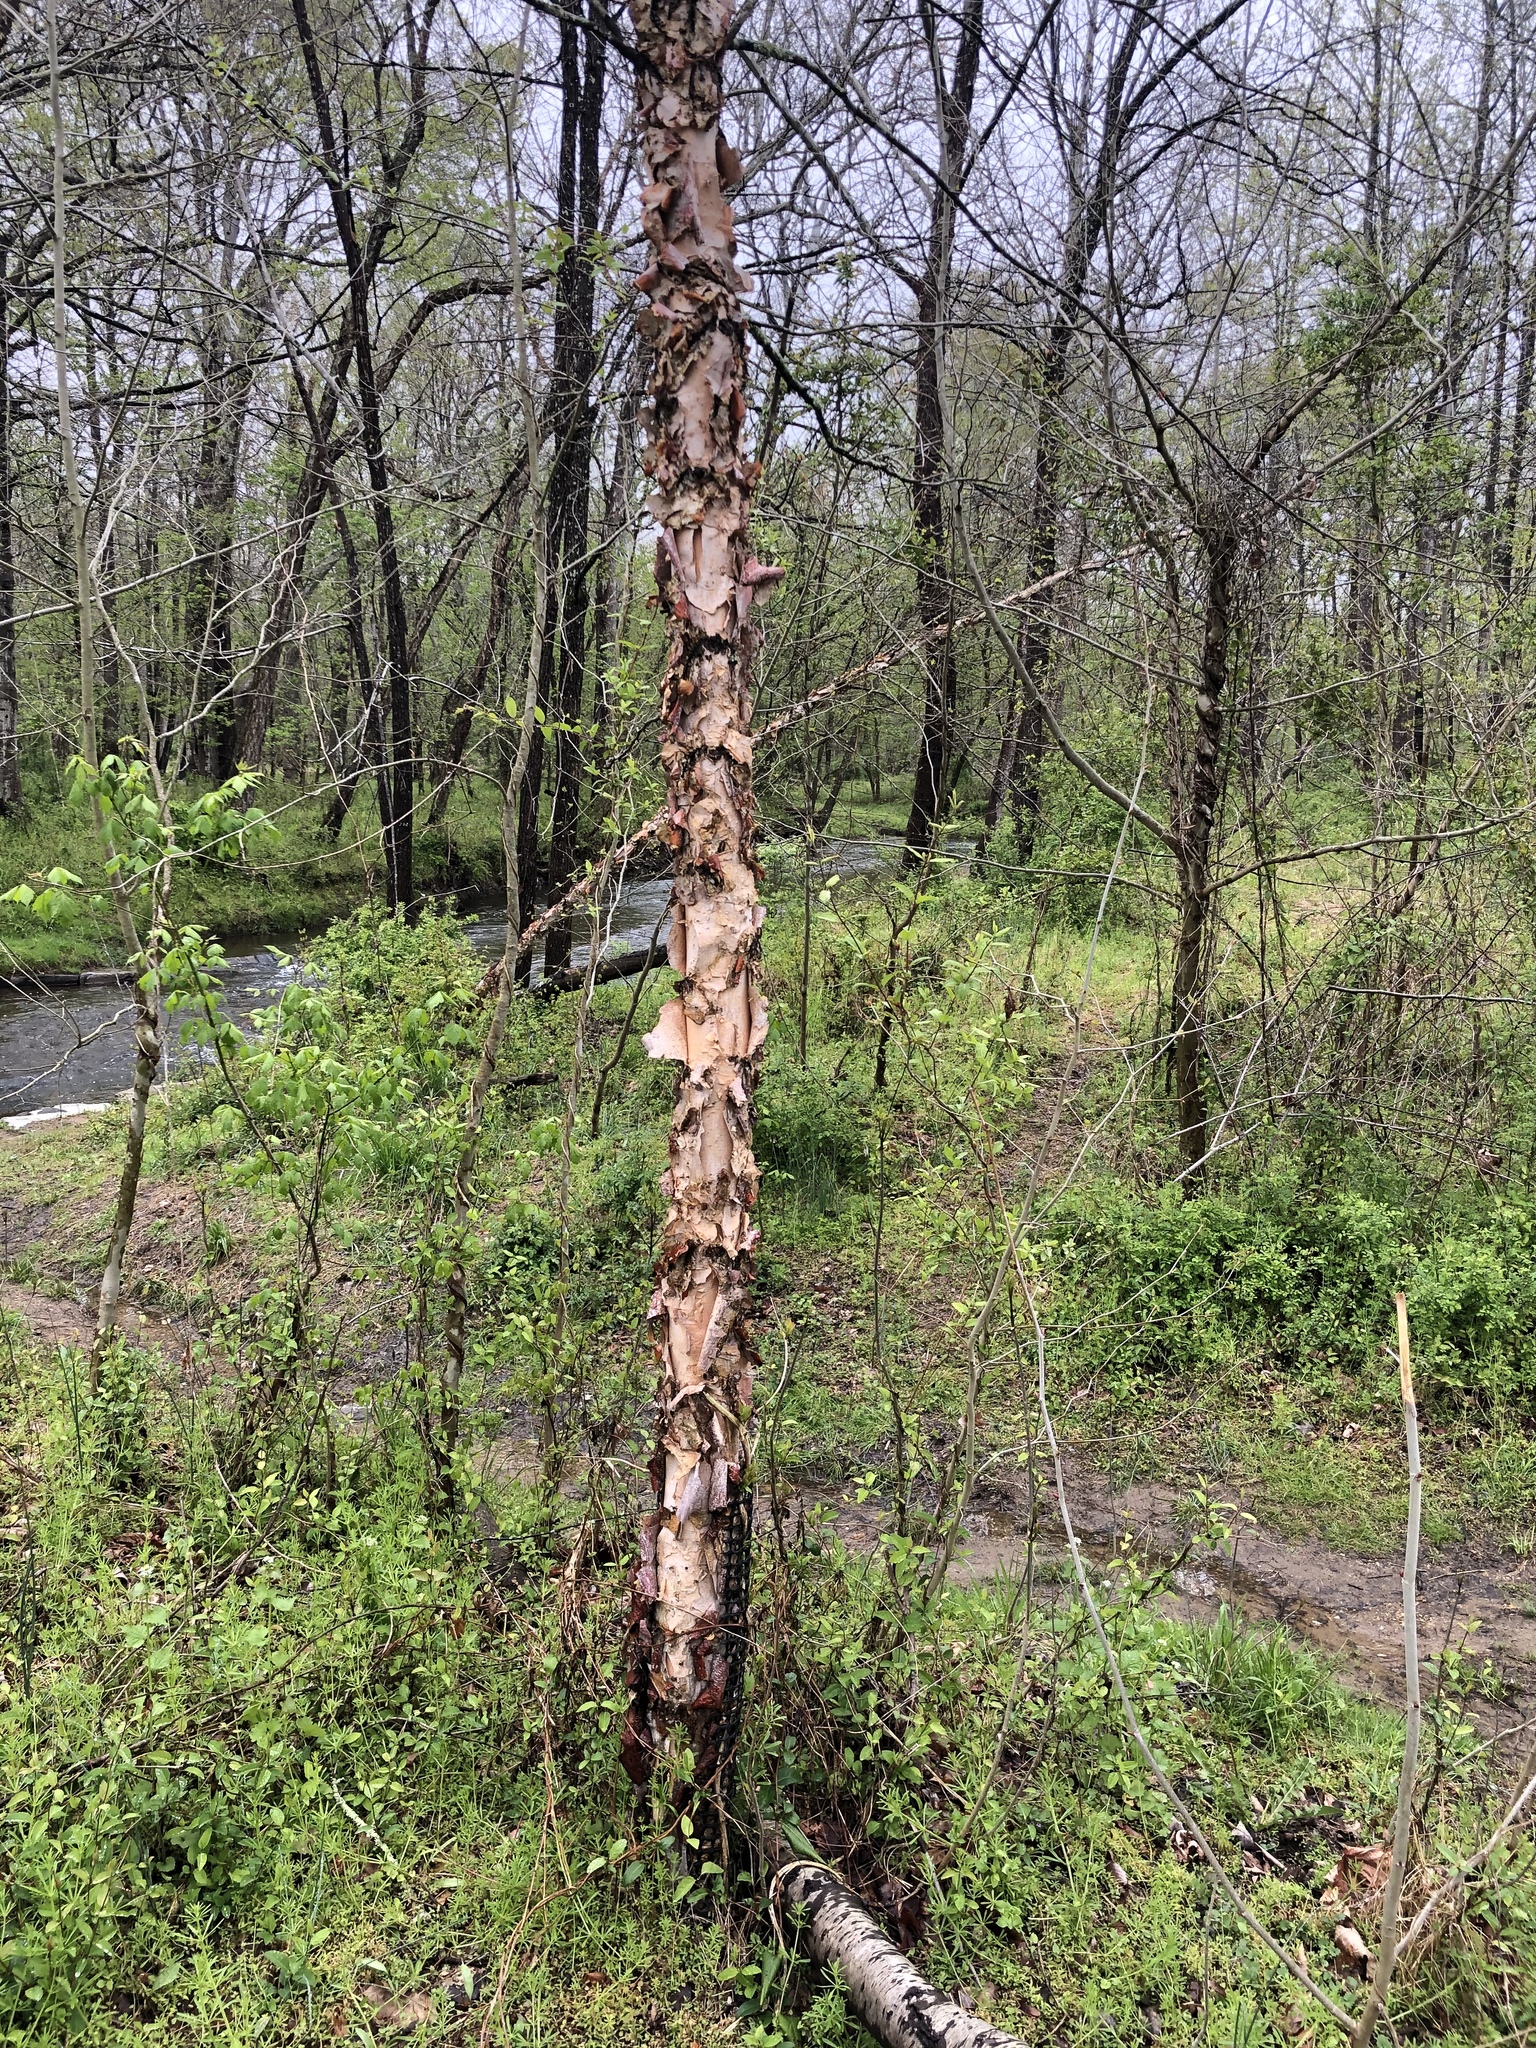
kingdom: Plantae
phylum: Tracheophyta
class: Magnoliopsida
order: Fagales
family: Betulaceae
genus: Betula
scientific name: Betula nigra
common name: Black birch
